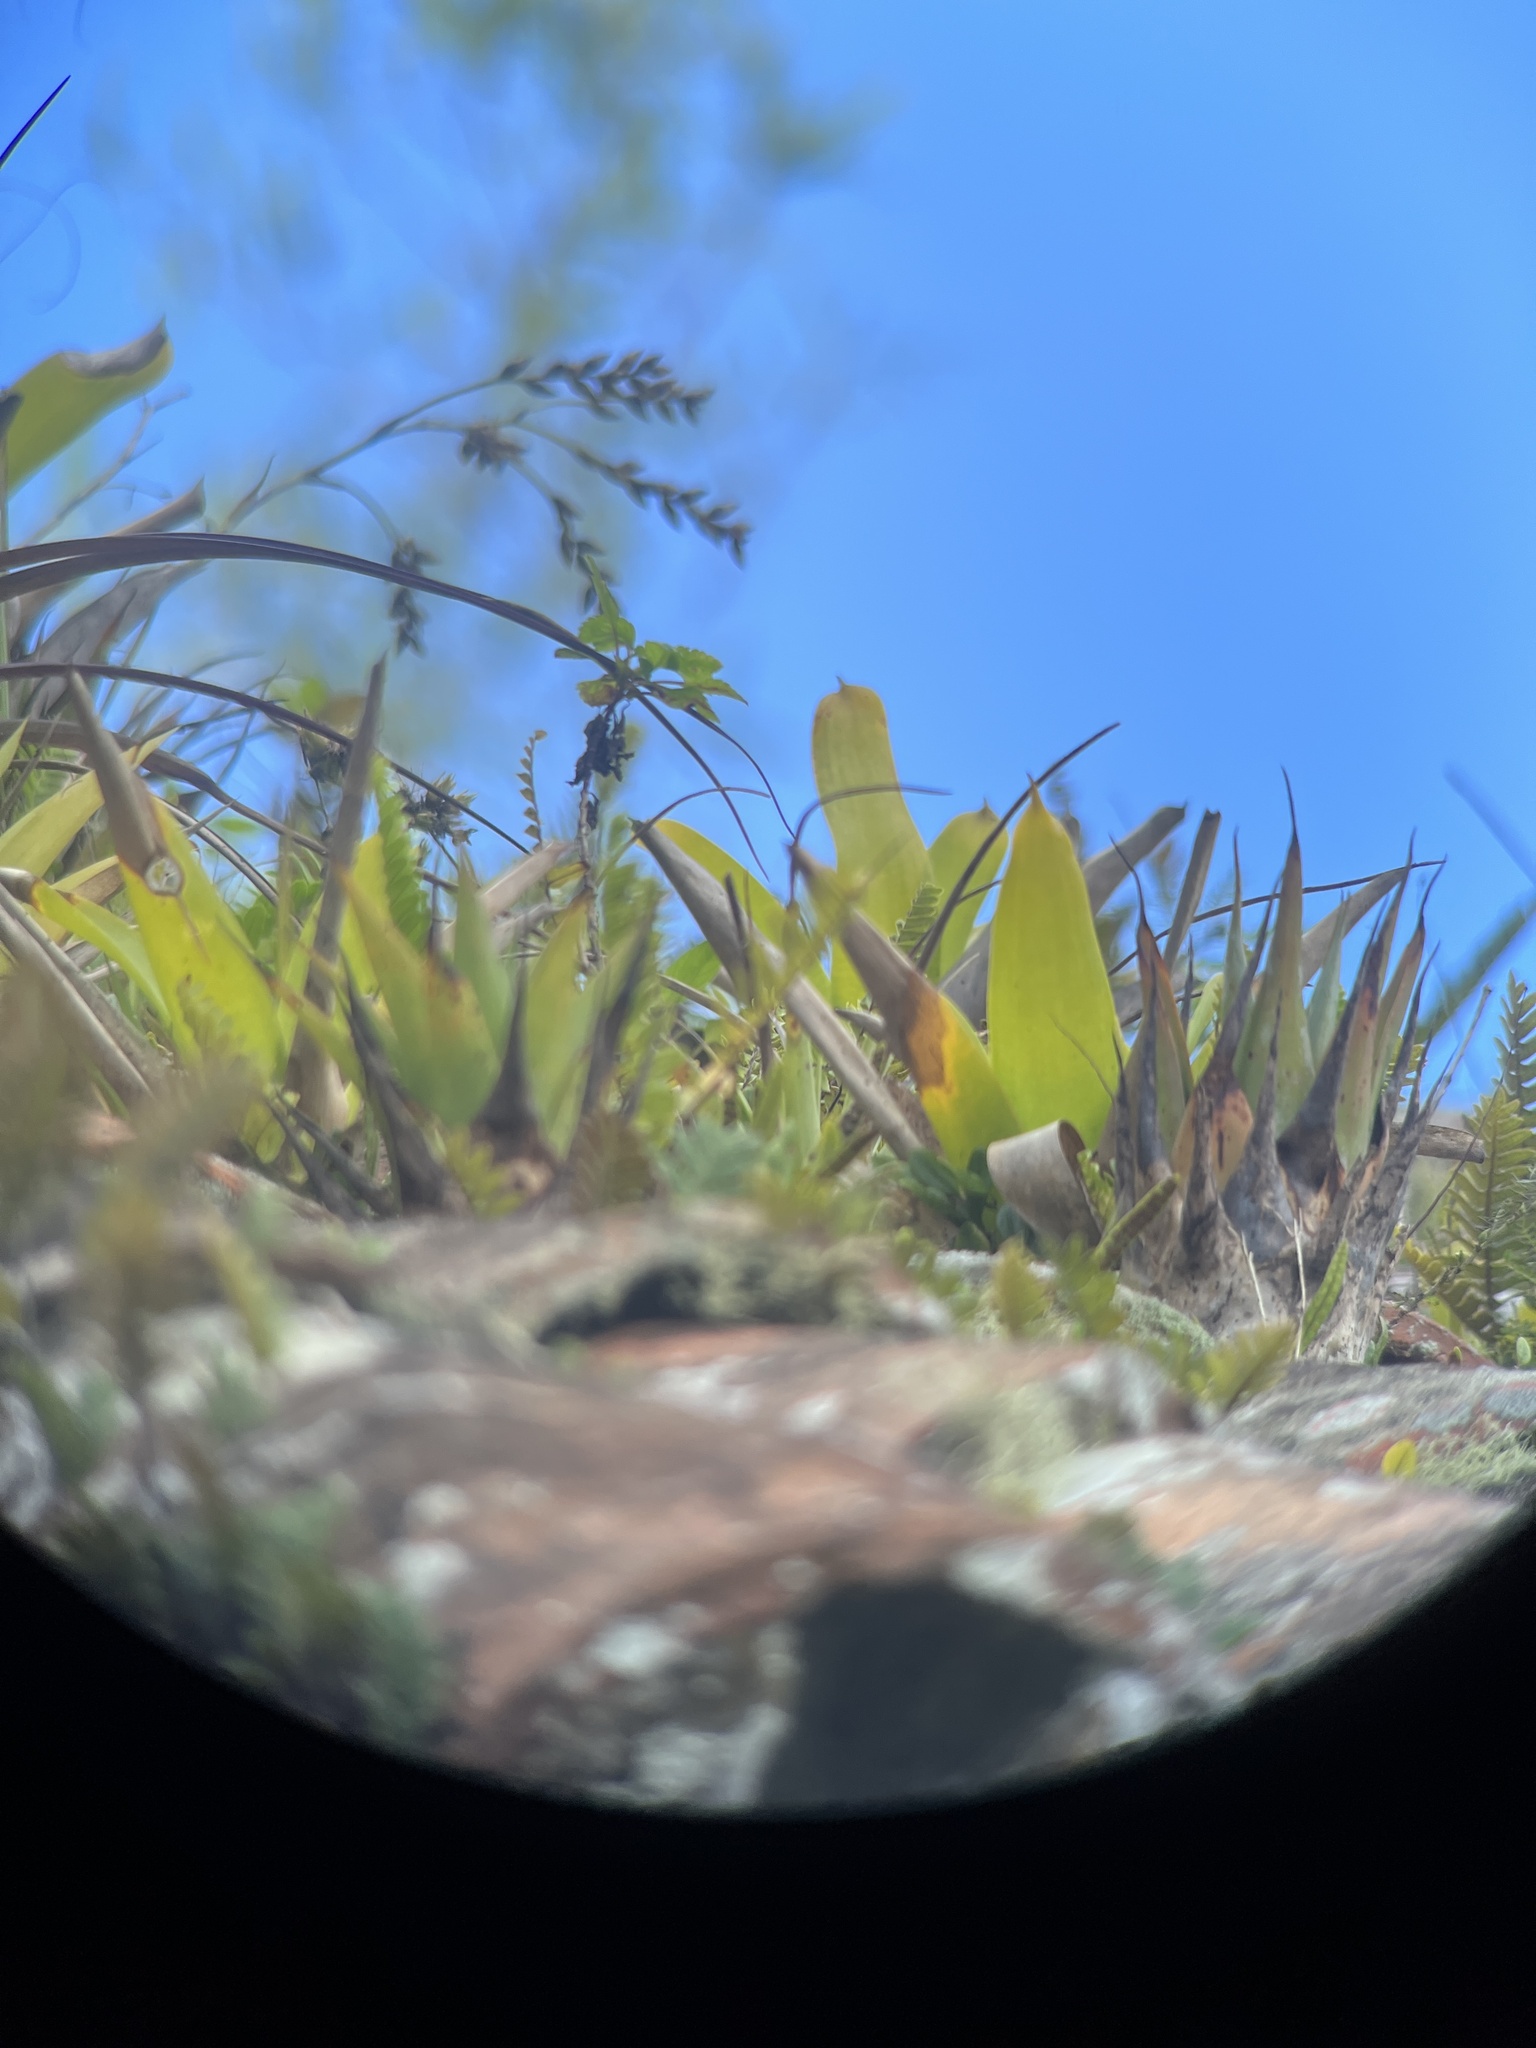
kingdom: Plantae
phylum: Tracheophyta
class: Liliopsida
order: Poales
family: Bromeliaceae
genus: Catopsis
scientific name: Catopsis floribunda
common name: Florida strap airplant
